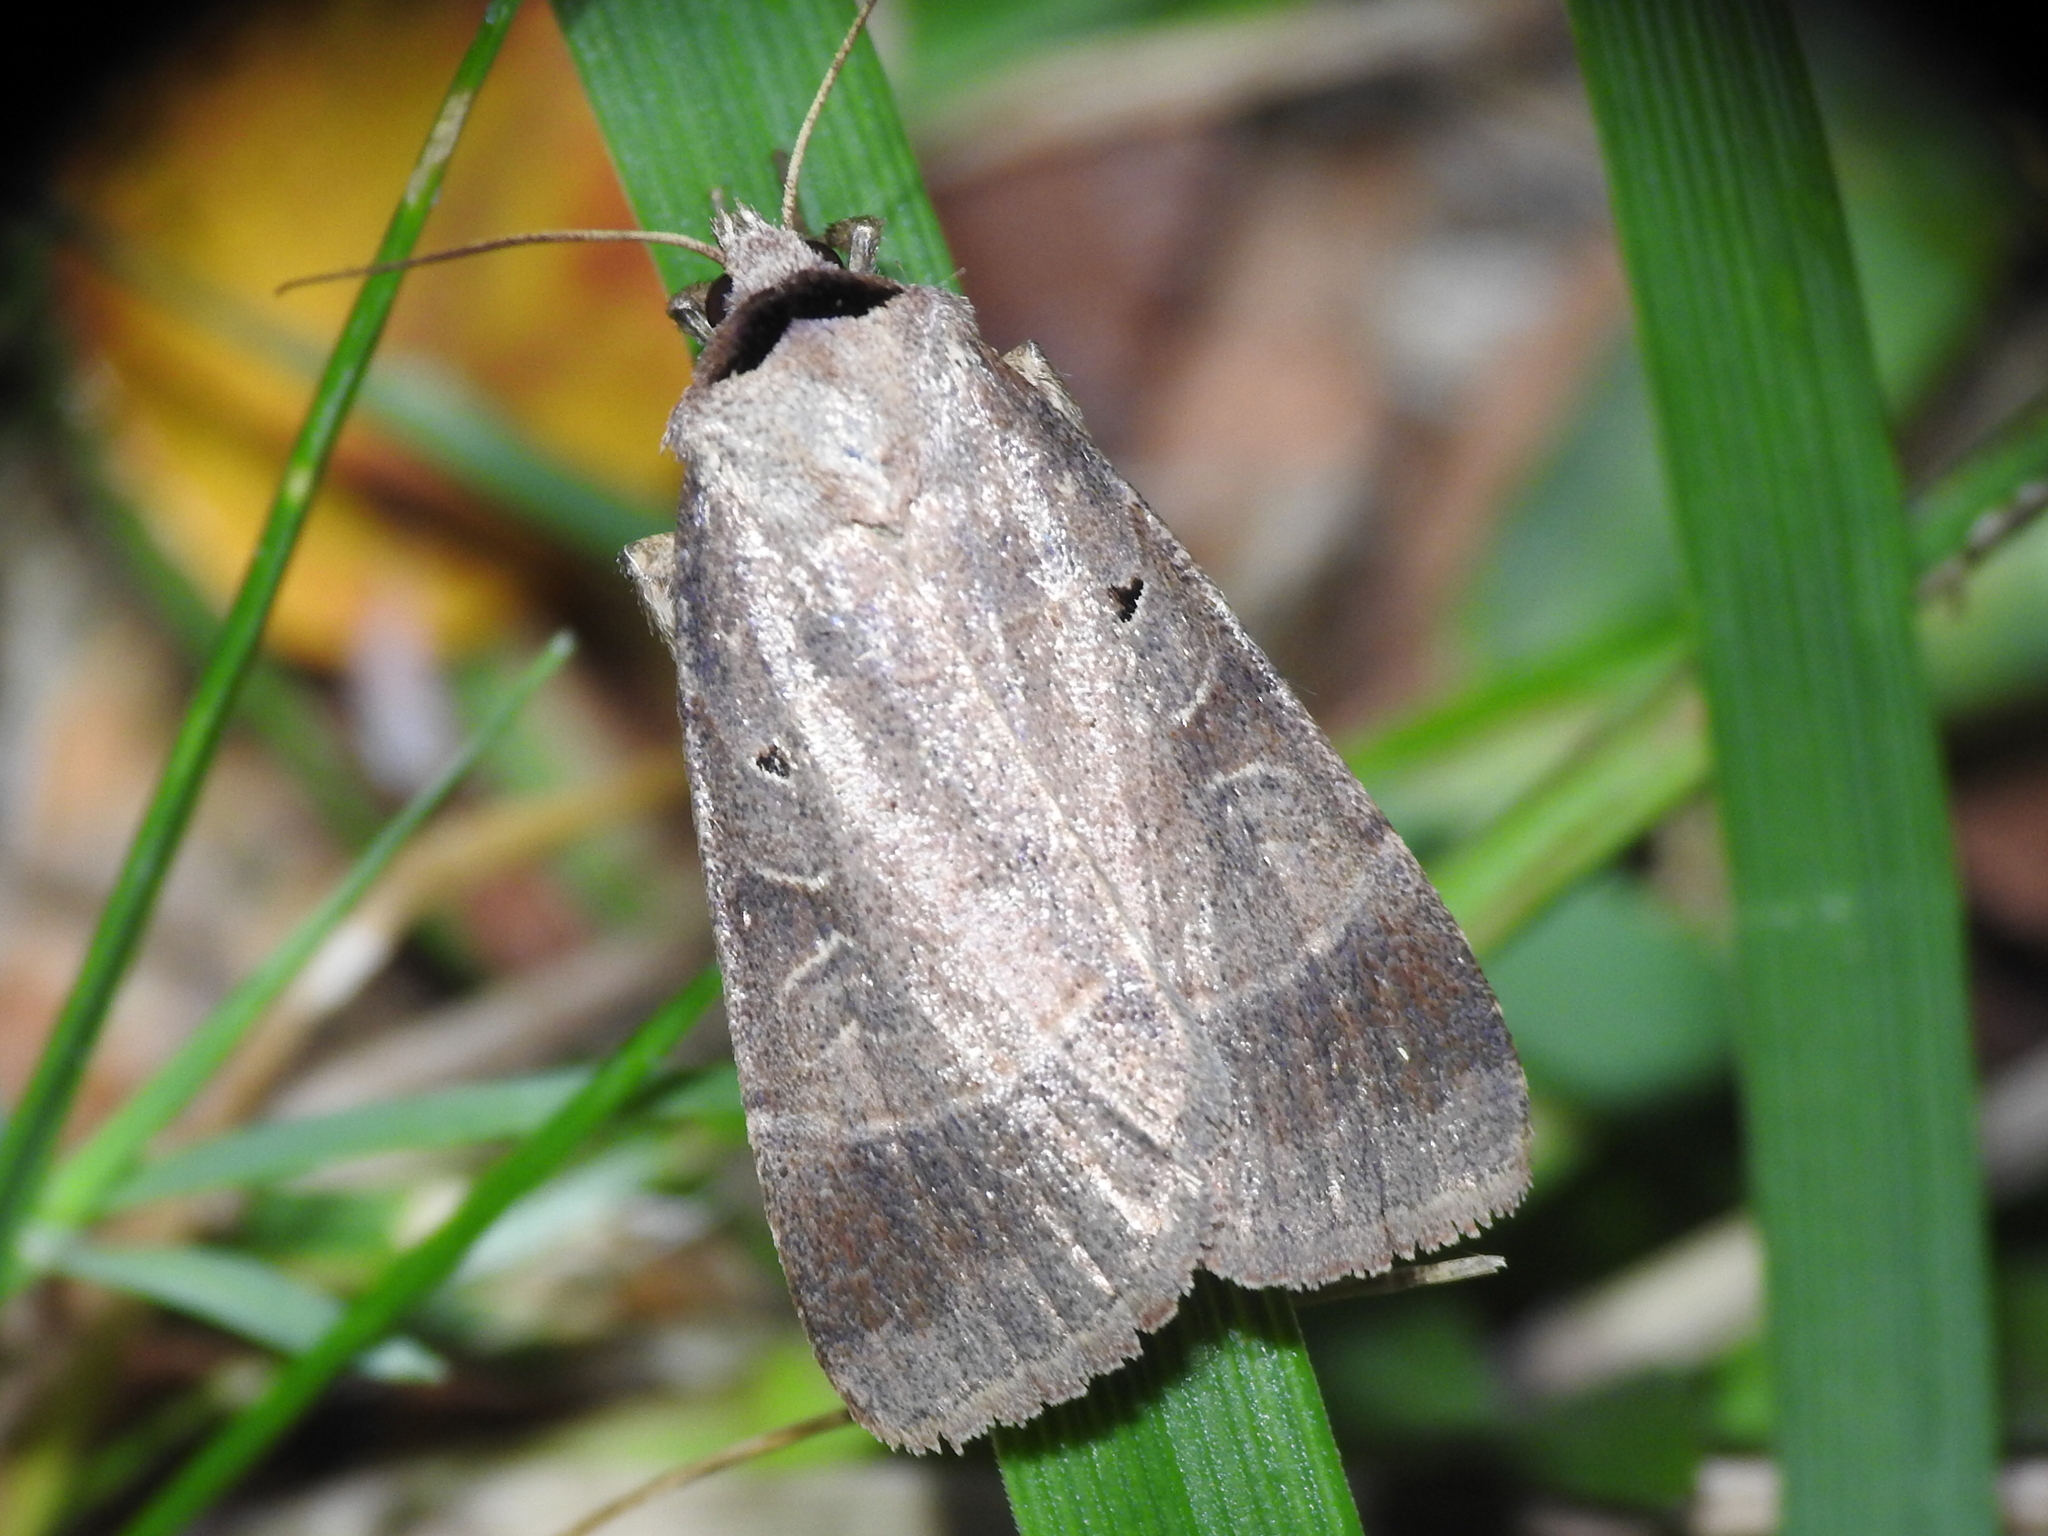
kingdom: Animalia
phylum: Arthropoda
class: Insecta
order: Lepidoptera
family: Noctuidae
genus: Agnorisma
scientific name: Agnorisma badinodis
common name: Pale-banded dart
